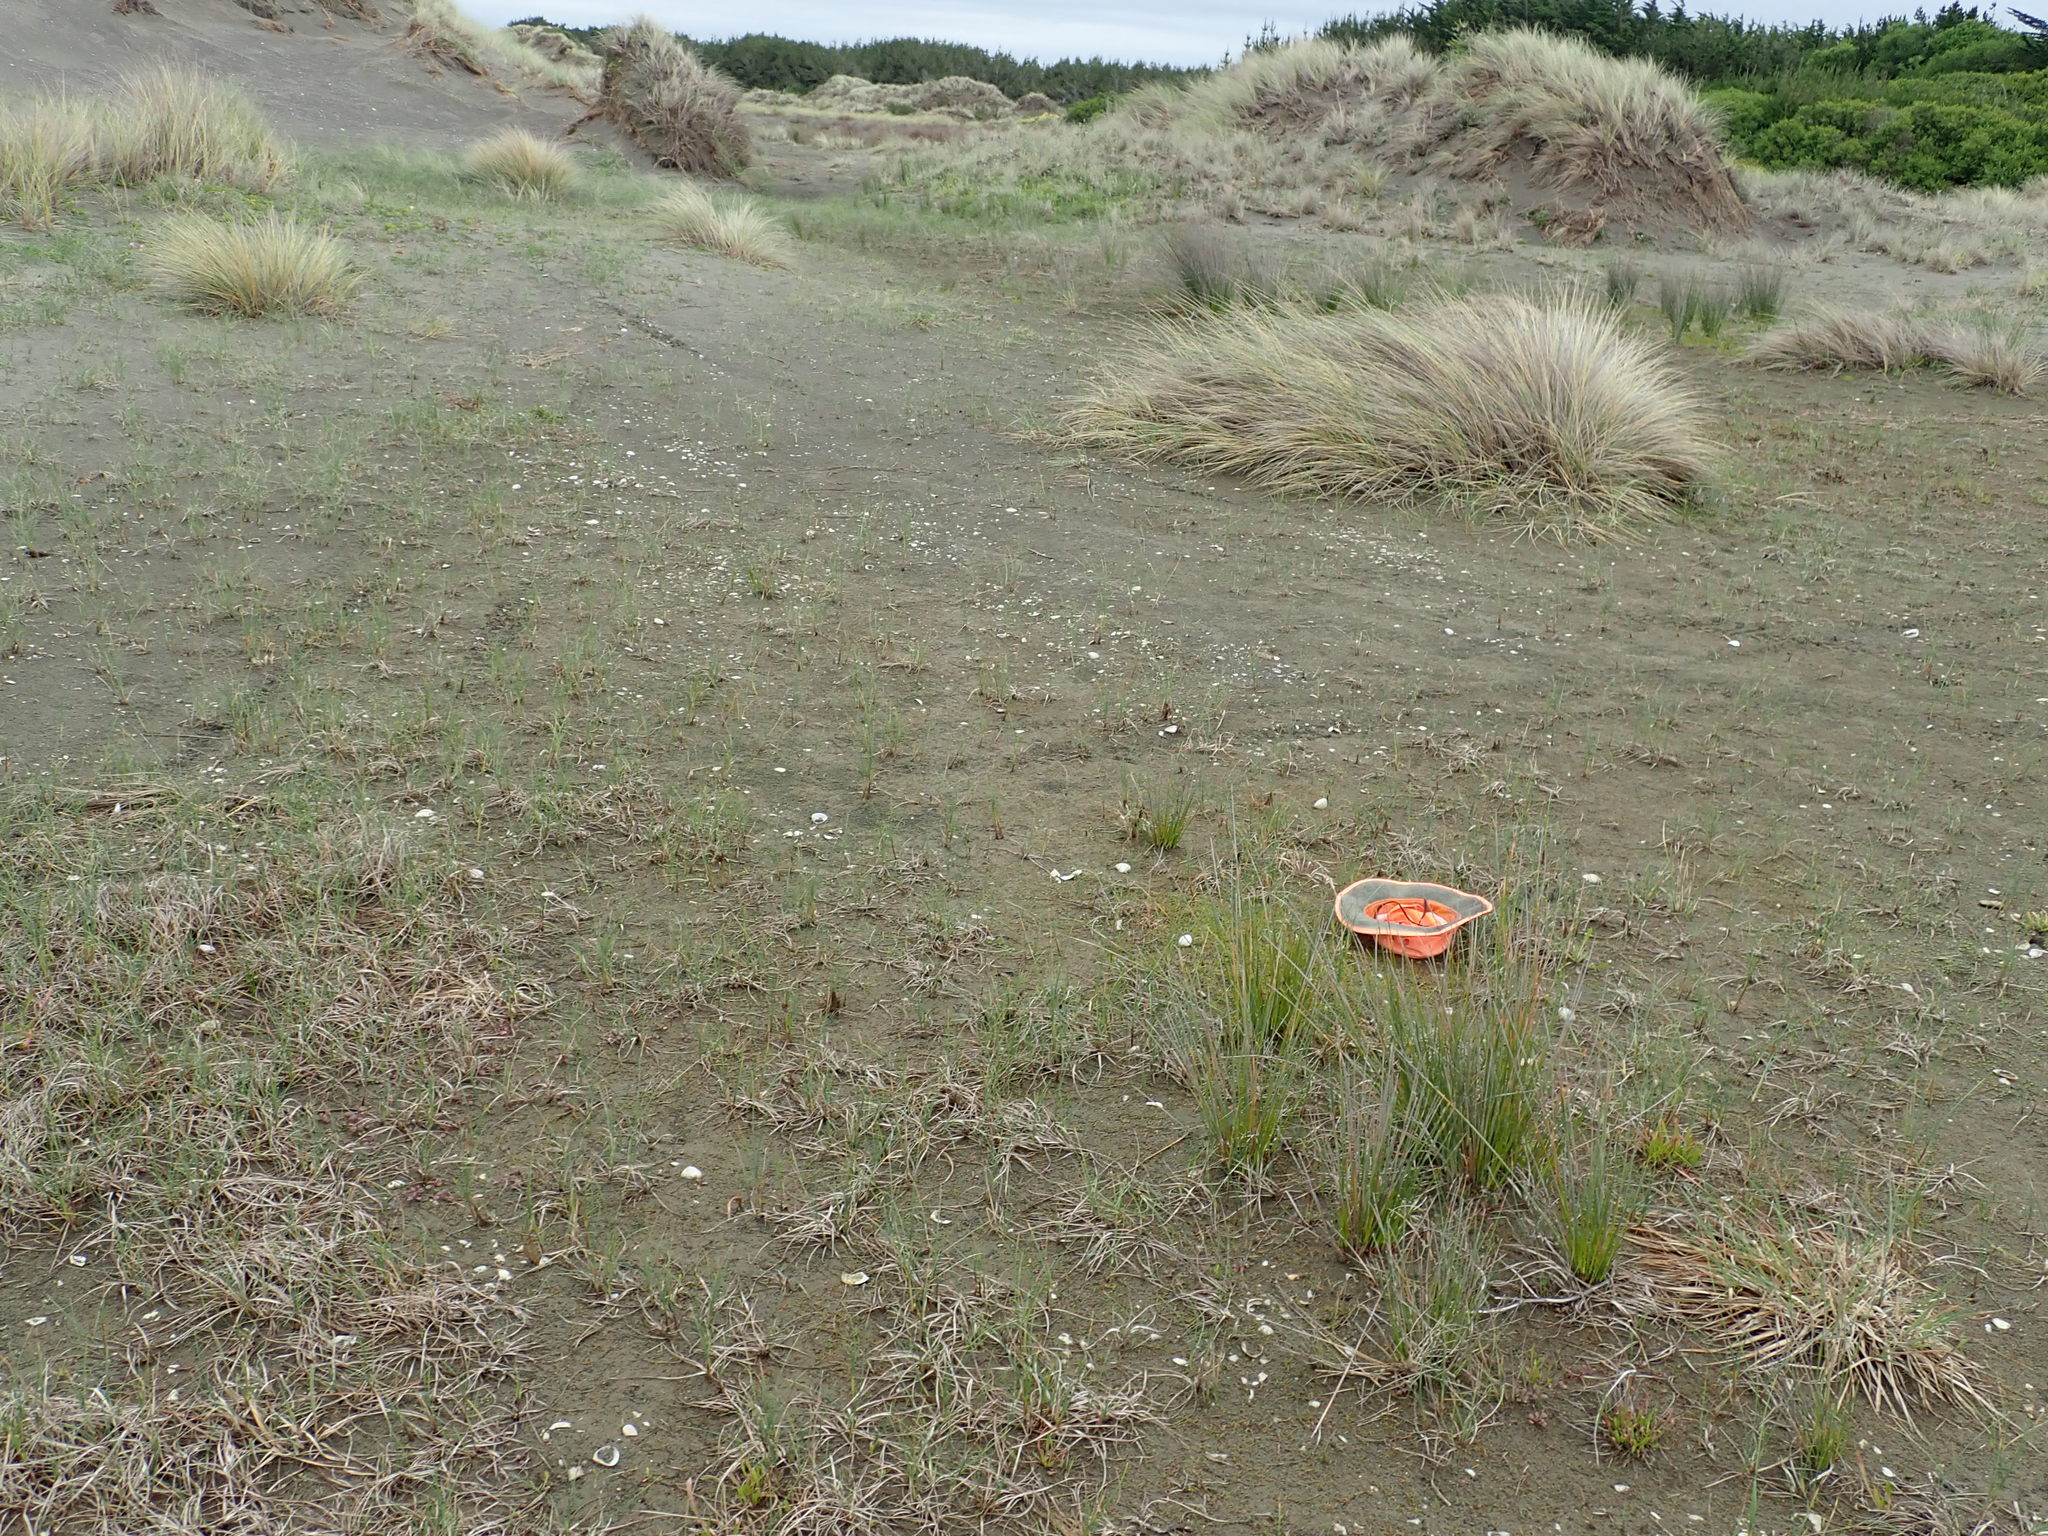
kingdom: Plantae
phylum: Tracheophyta
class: Magnoliopsida
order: Asterales
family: Campanulaceae
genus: Lobelia
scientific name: Lobelia anceps
